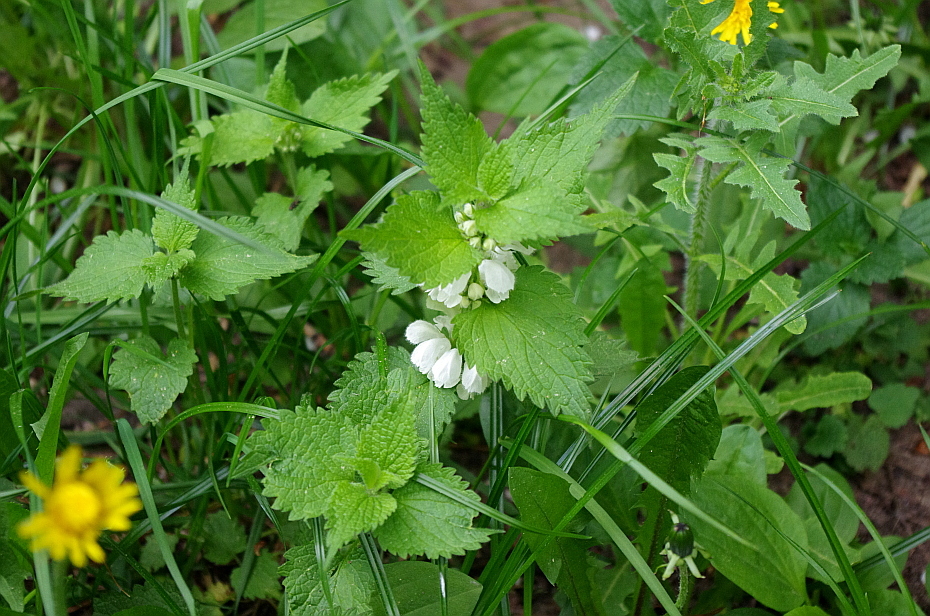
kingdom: Plantae
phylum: Tracheophyta
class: Magnoliopsida
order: Lamiales
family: Lamiaceae
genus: Lamium
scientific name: Lamium album
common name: White dead-nettle
